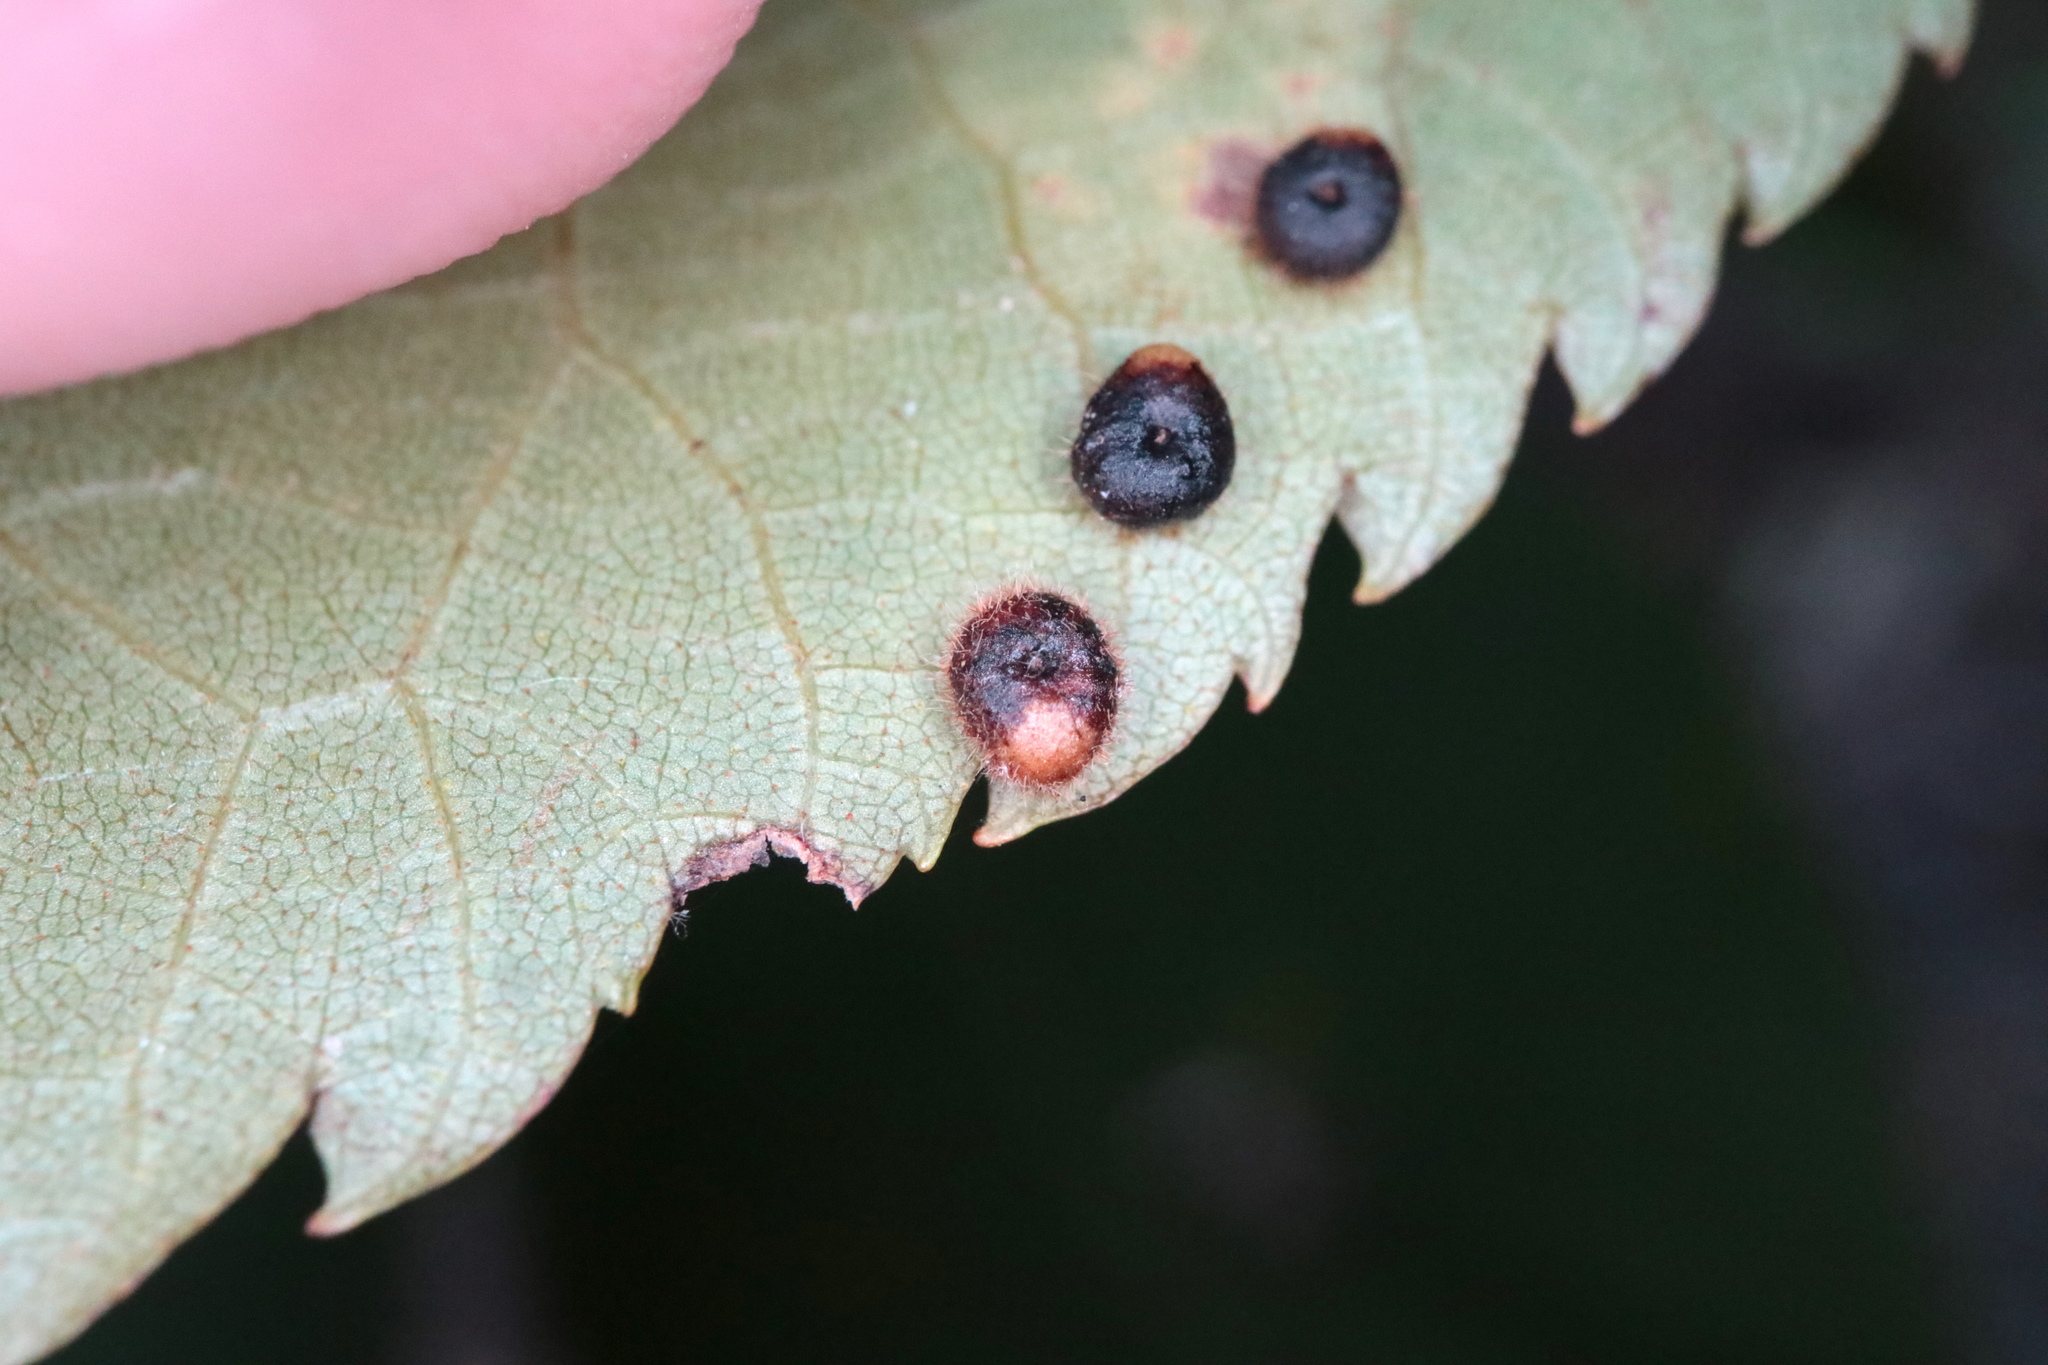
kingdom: Animalia
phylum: Arthropoda
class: Insecta
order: Diptera
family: Cecidomyiidae
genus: Caryomyia
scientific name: Caryomyia thompsoni
